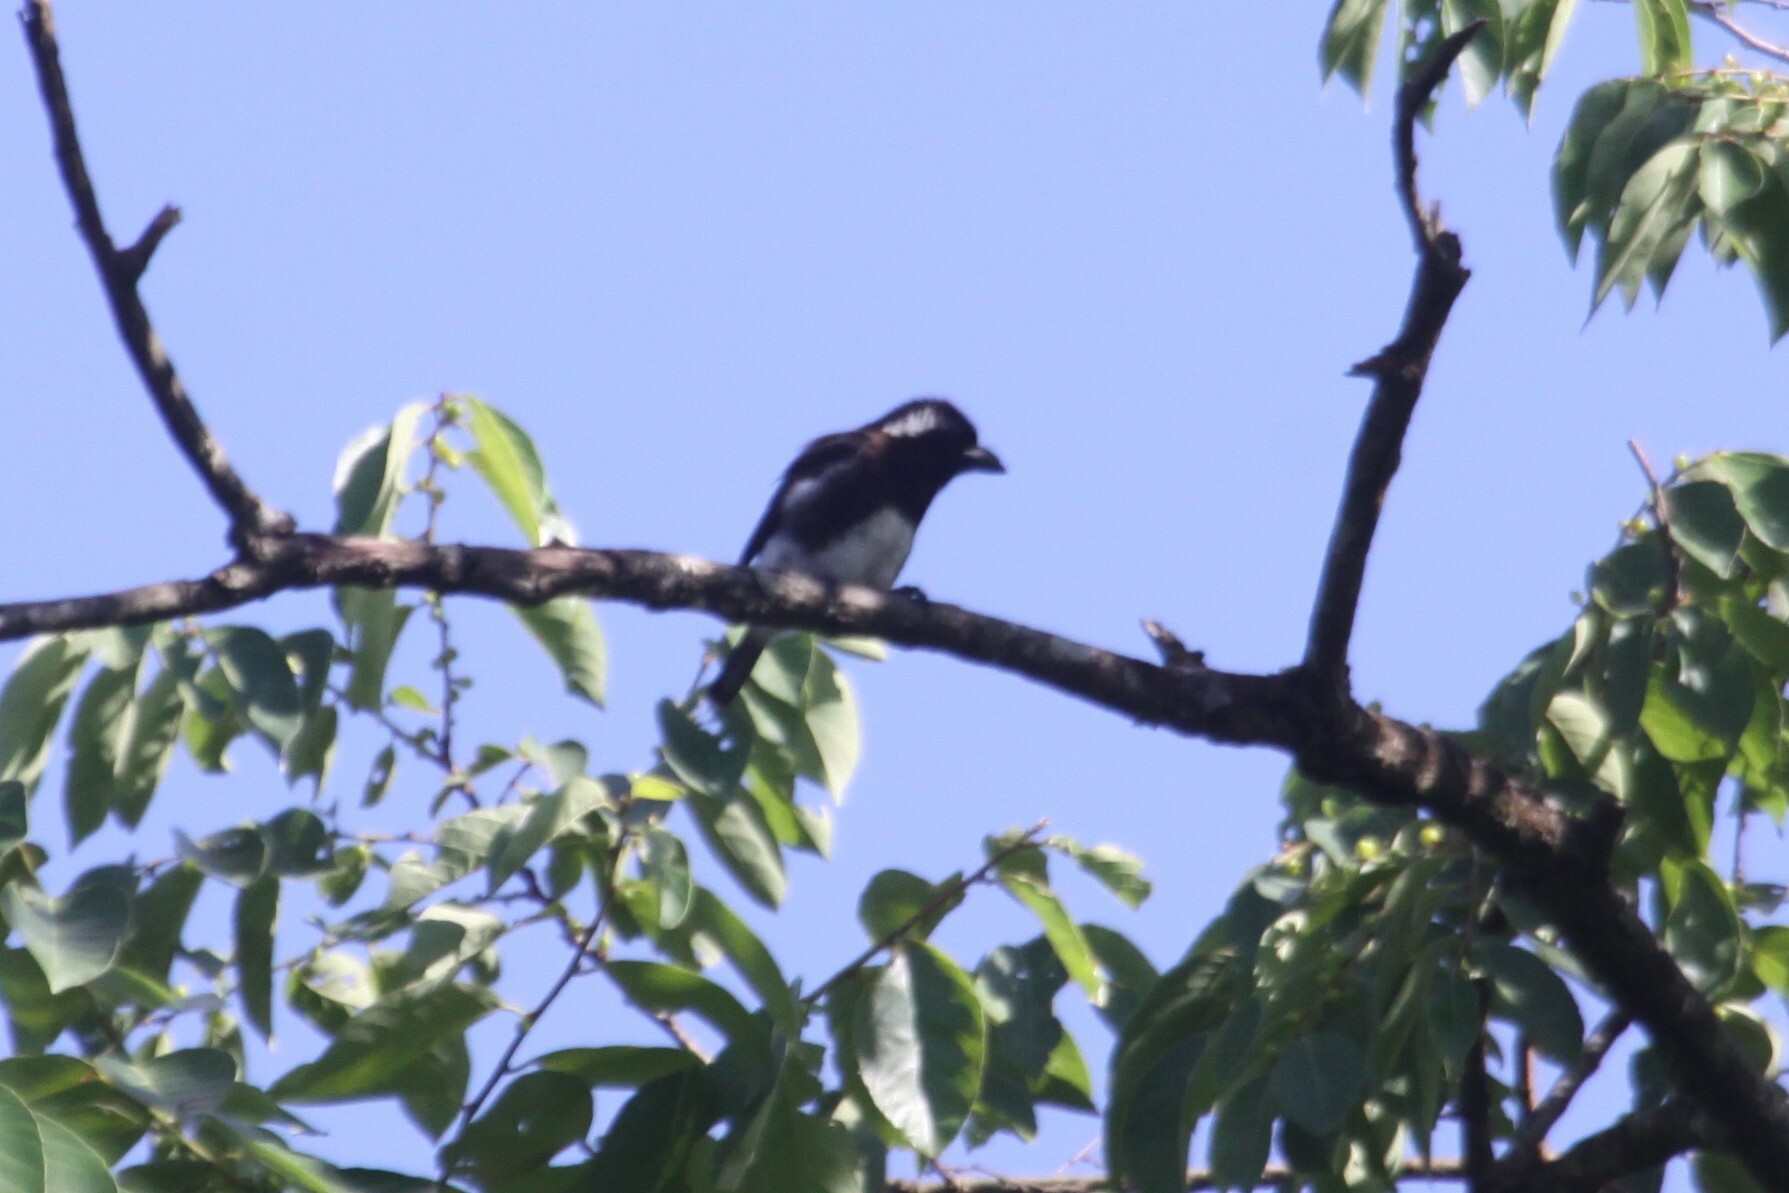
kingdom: Animalia
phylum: Chordata
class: Aves
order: Piciformes
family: Lybiidae
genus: Stactolaema
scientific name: Stactolaema leucotis
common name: White-eared barbet
